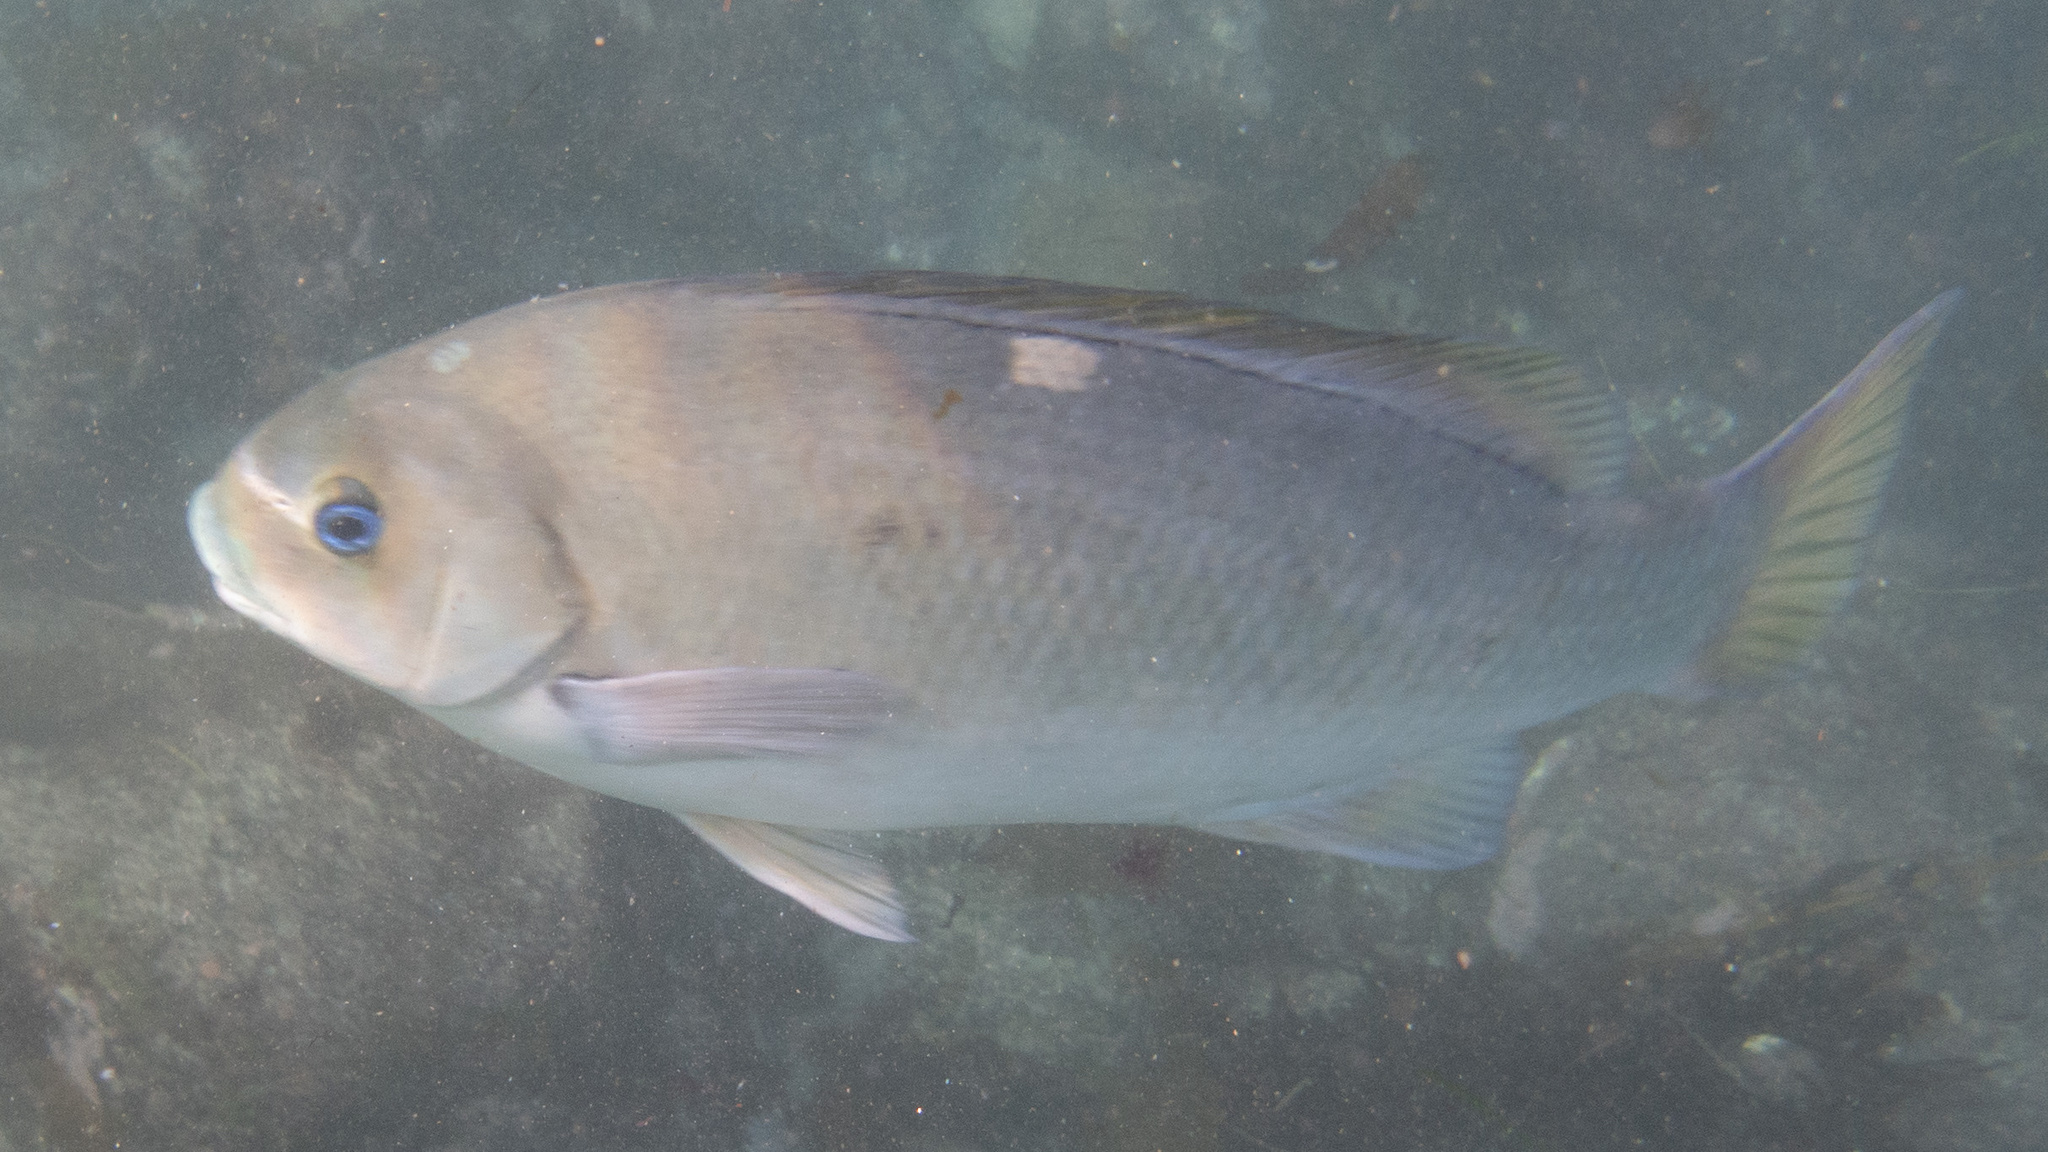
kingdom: Animalia
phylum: Chordata
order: Perciformes
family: Kyphosidae
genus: Girella
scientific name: Girella nigricans
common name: Opaleye
